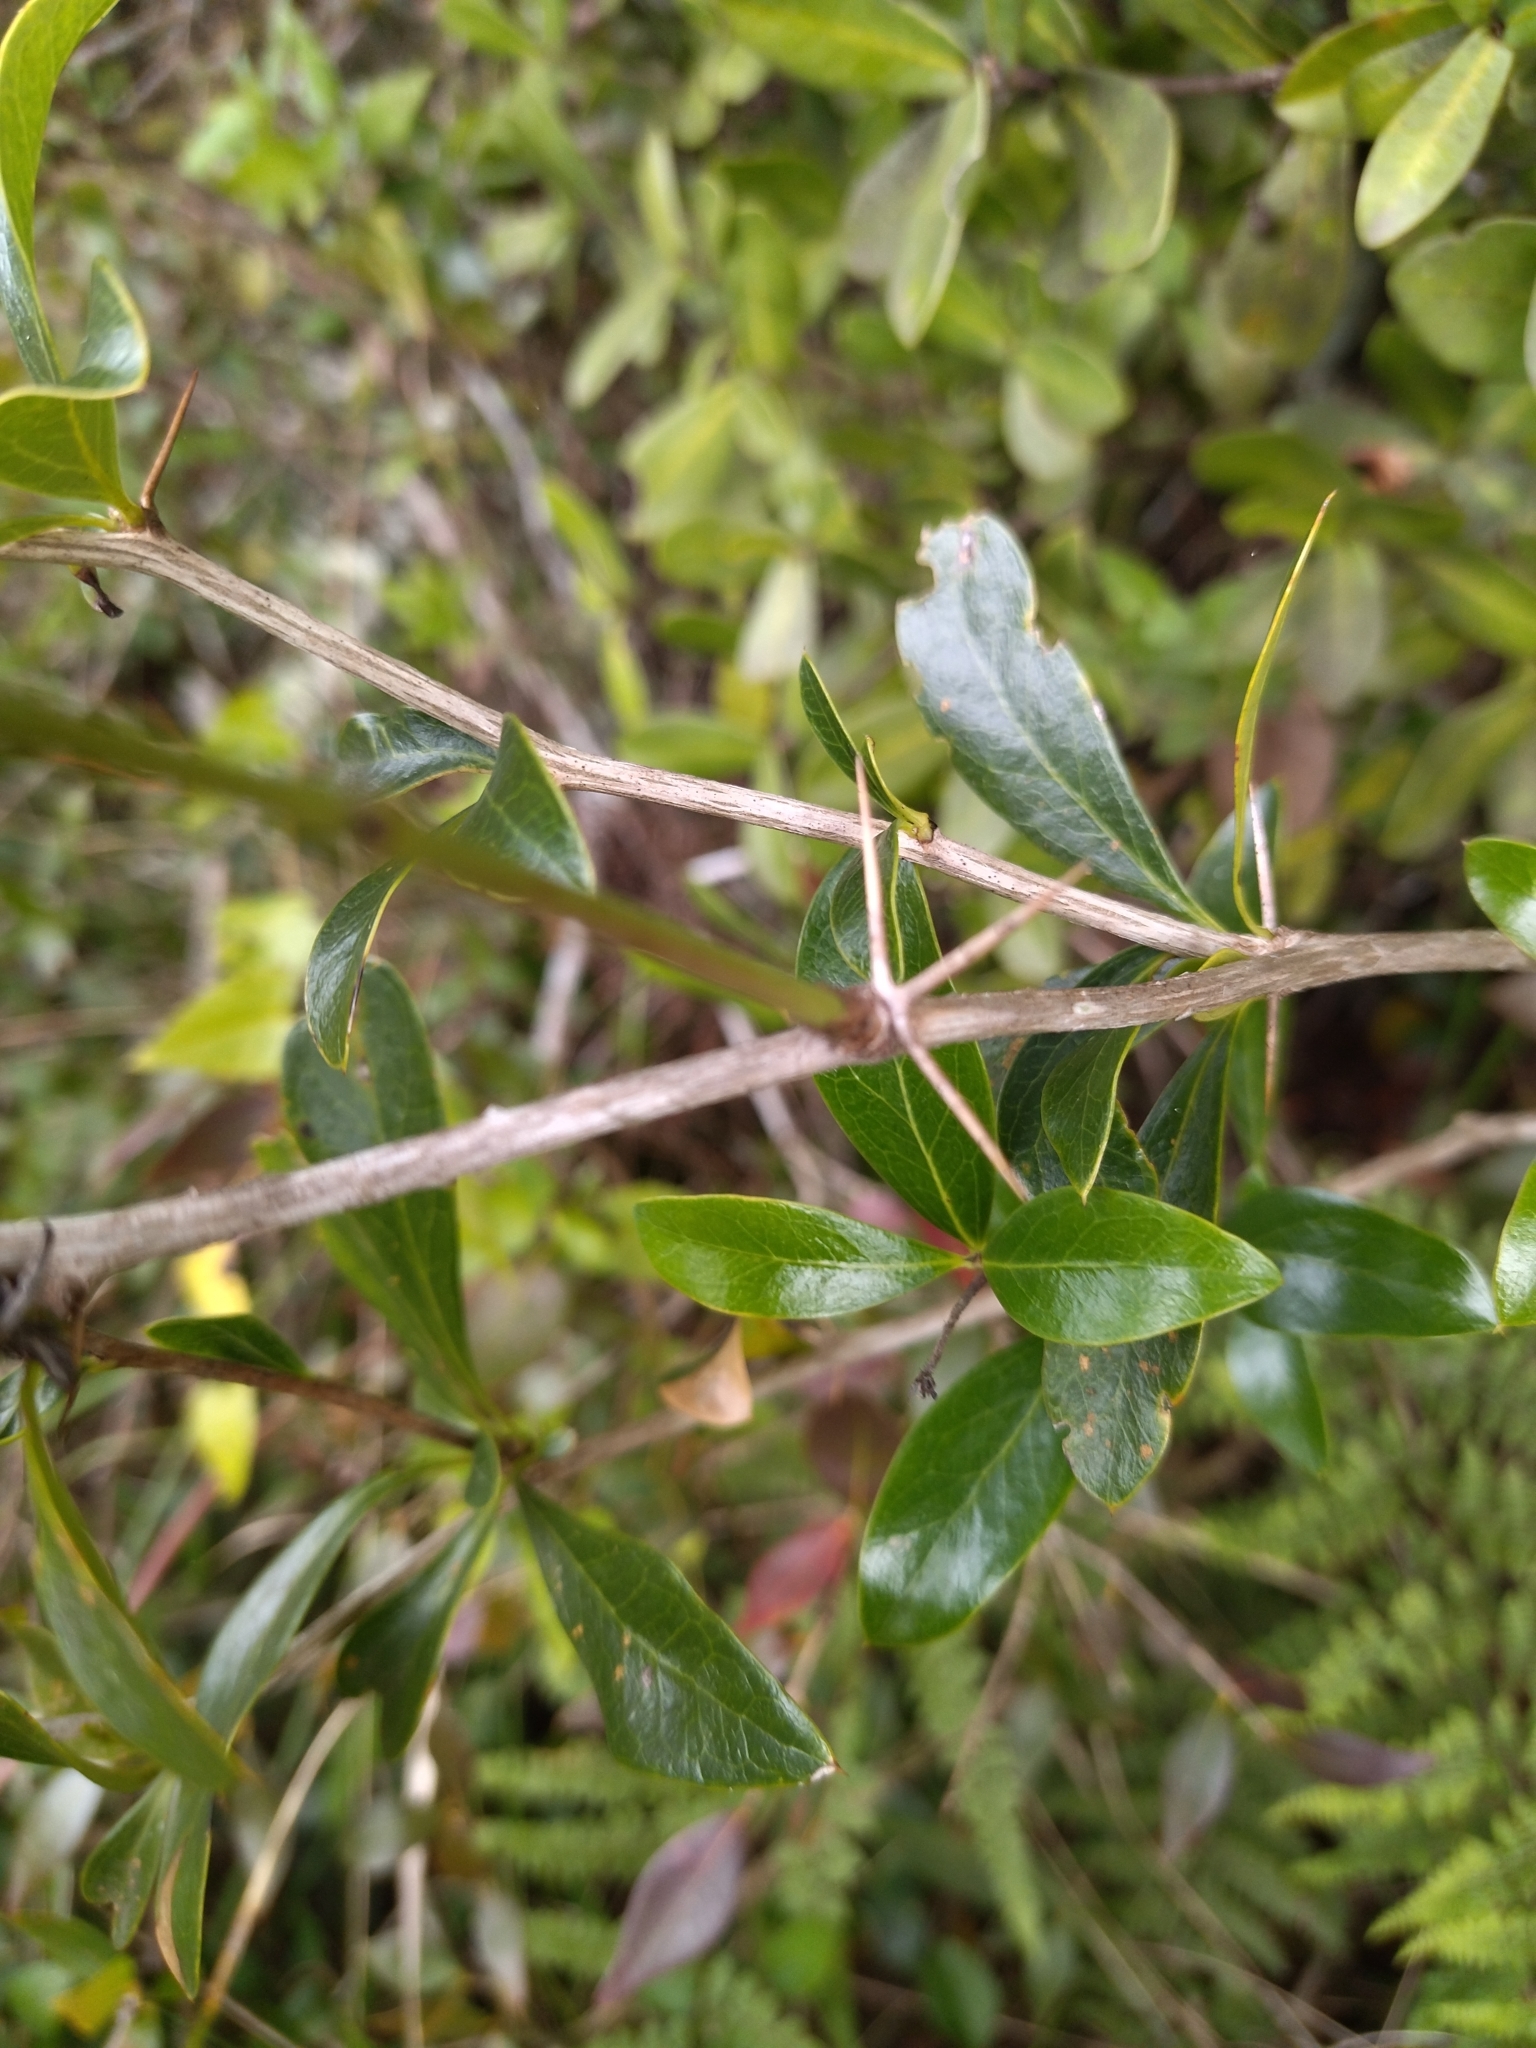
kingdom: Plantae
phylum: Tracheophyta
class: Magnoliopsida
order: Ranunculales
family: Berberidaceae
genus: Berberis
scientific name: Berberis laurina
